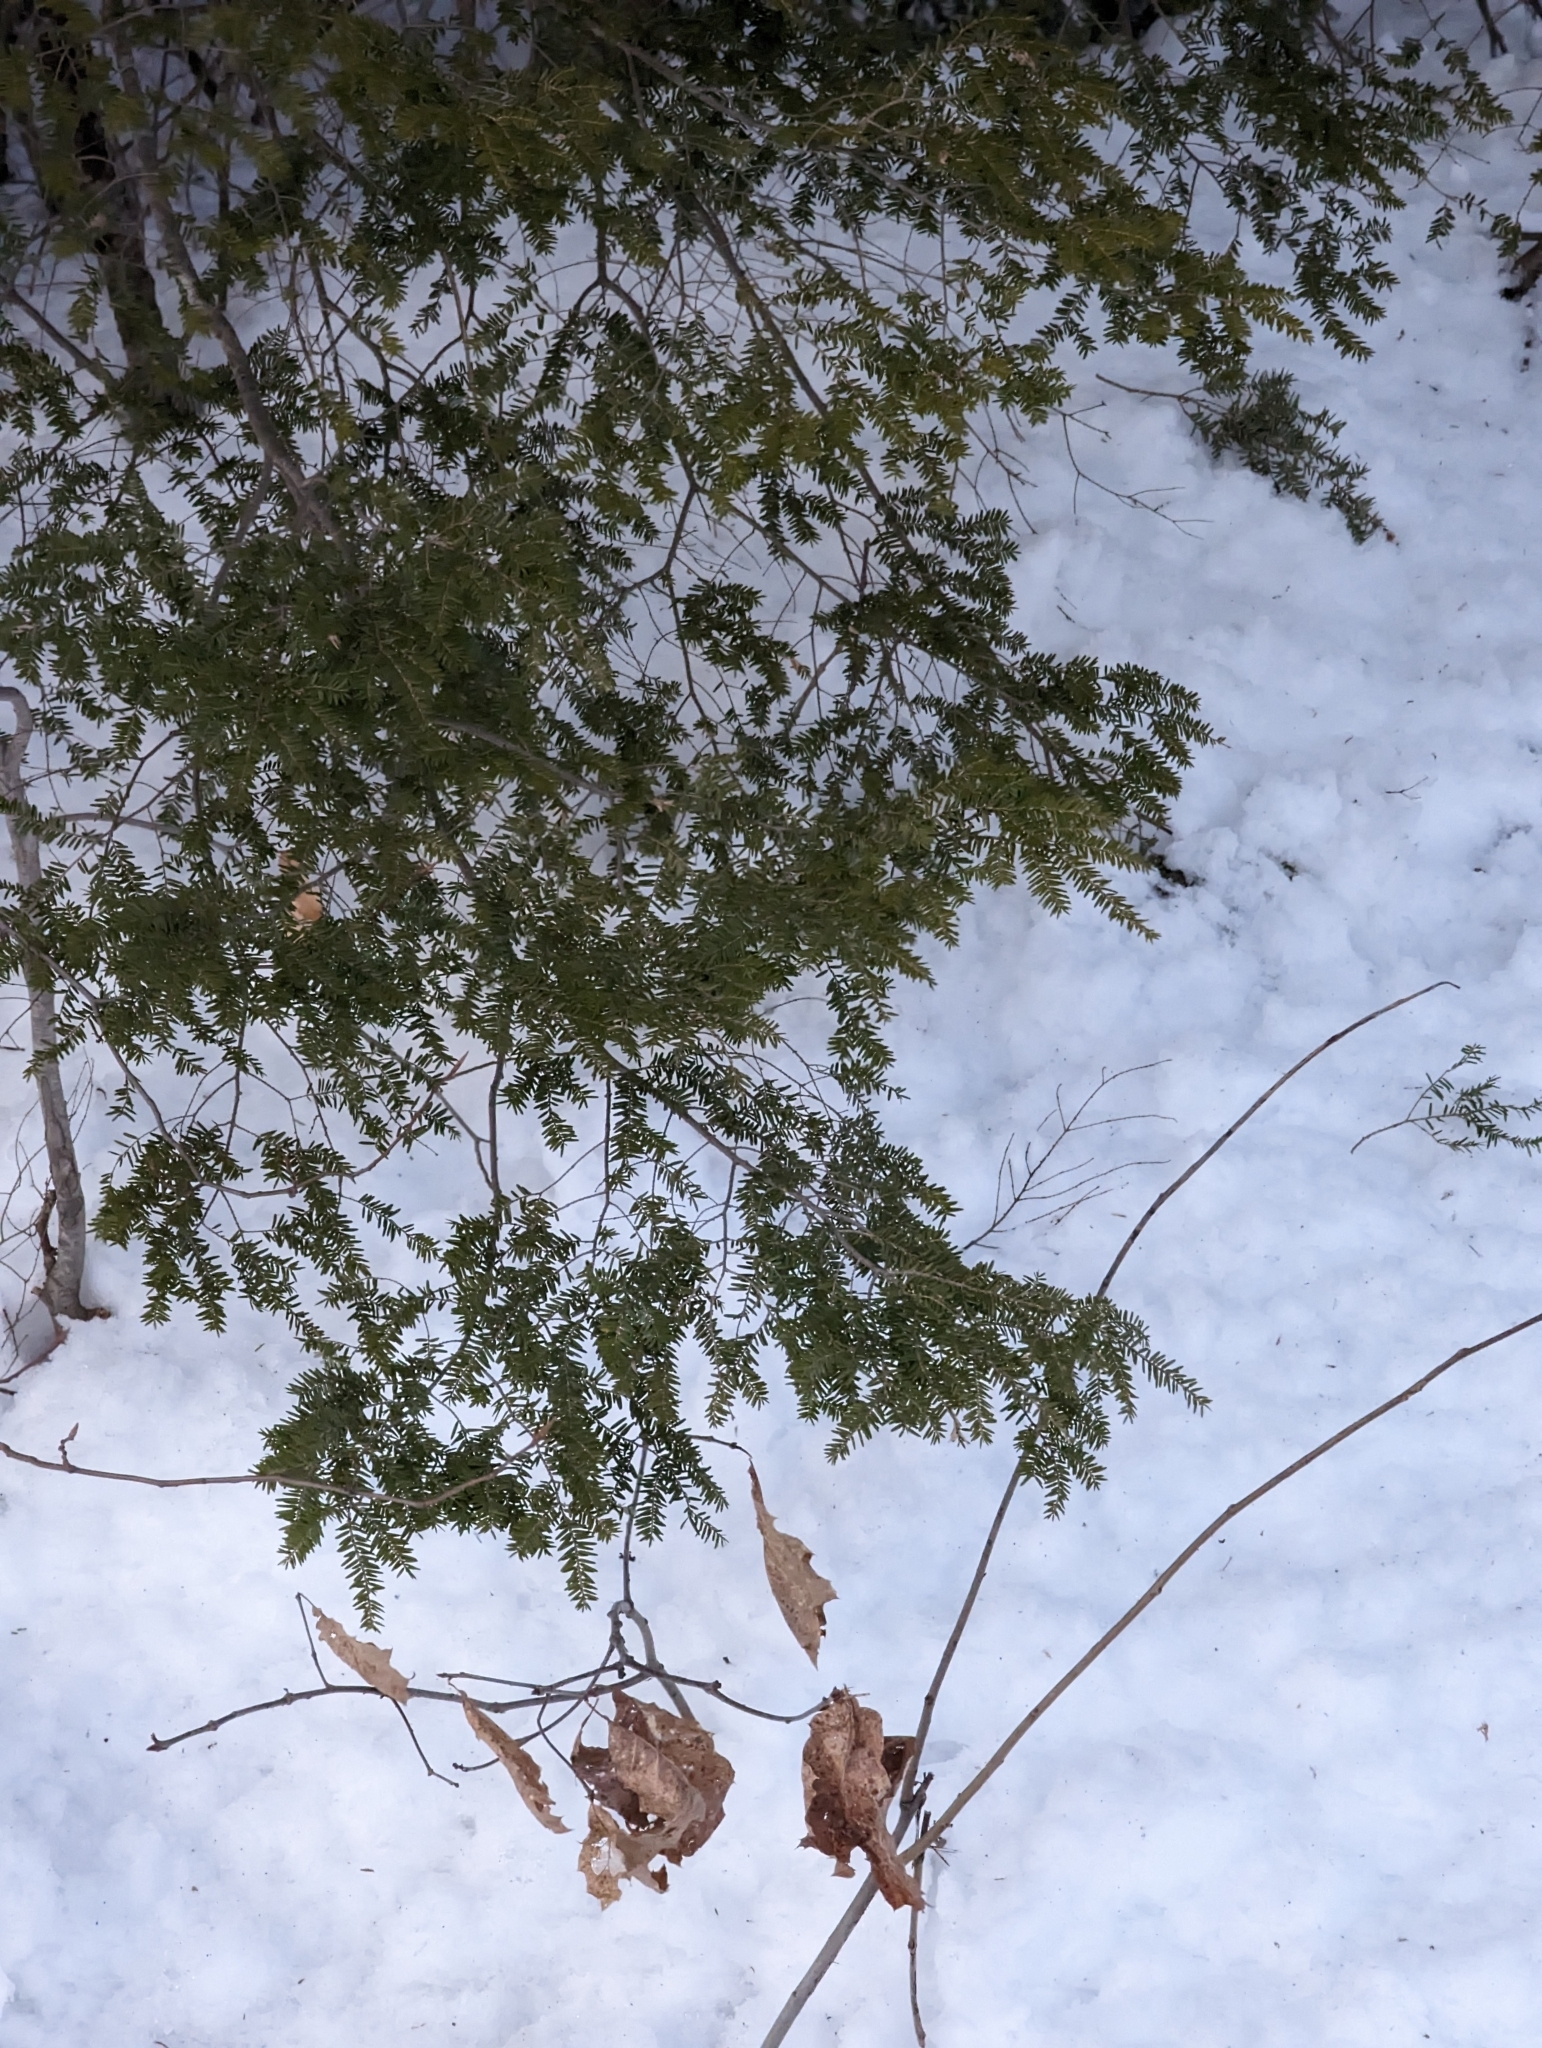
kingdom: Plantae
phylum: Tracheophyta
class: Pinopsida
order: Pinales
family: Pinaceae
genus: Tsuga
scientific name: Tsuga canadensis
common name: Eastern hemlock
